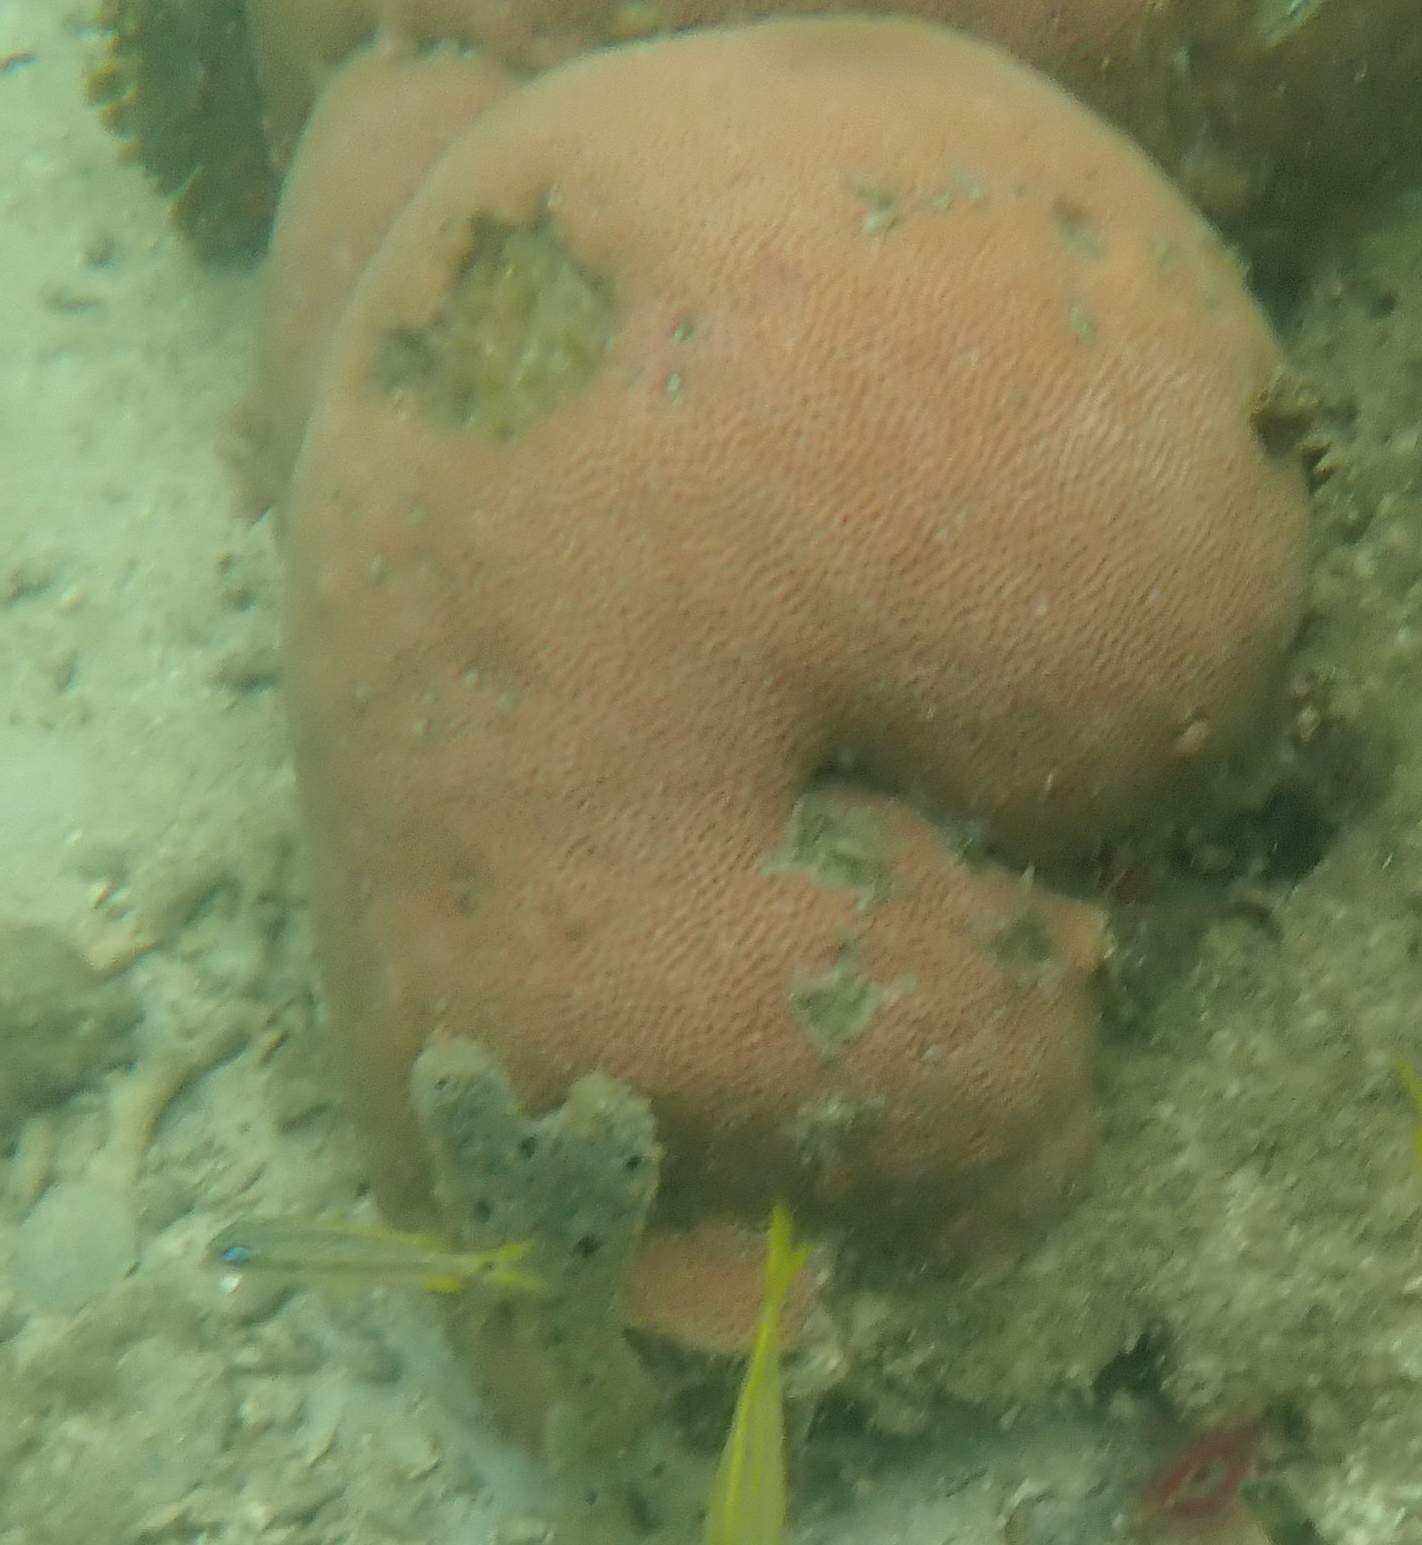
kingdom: Animalia
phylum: Cnidaria
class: Anthozoa
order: Scleractinia
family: Rhizangiidae
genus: Siderastrea
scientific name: Siderastrea siderea
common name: Massive starlet coral
